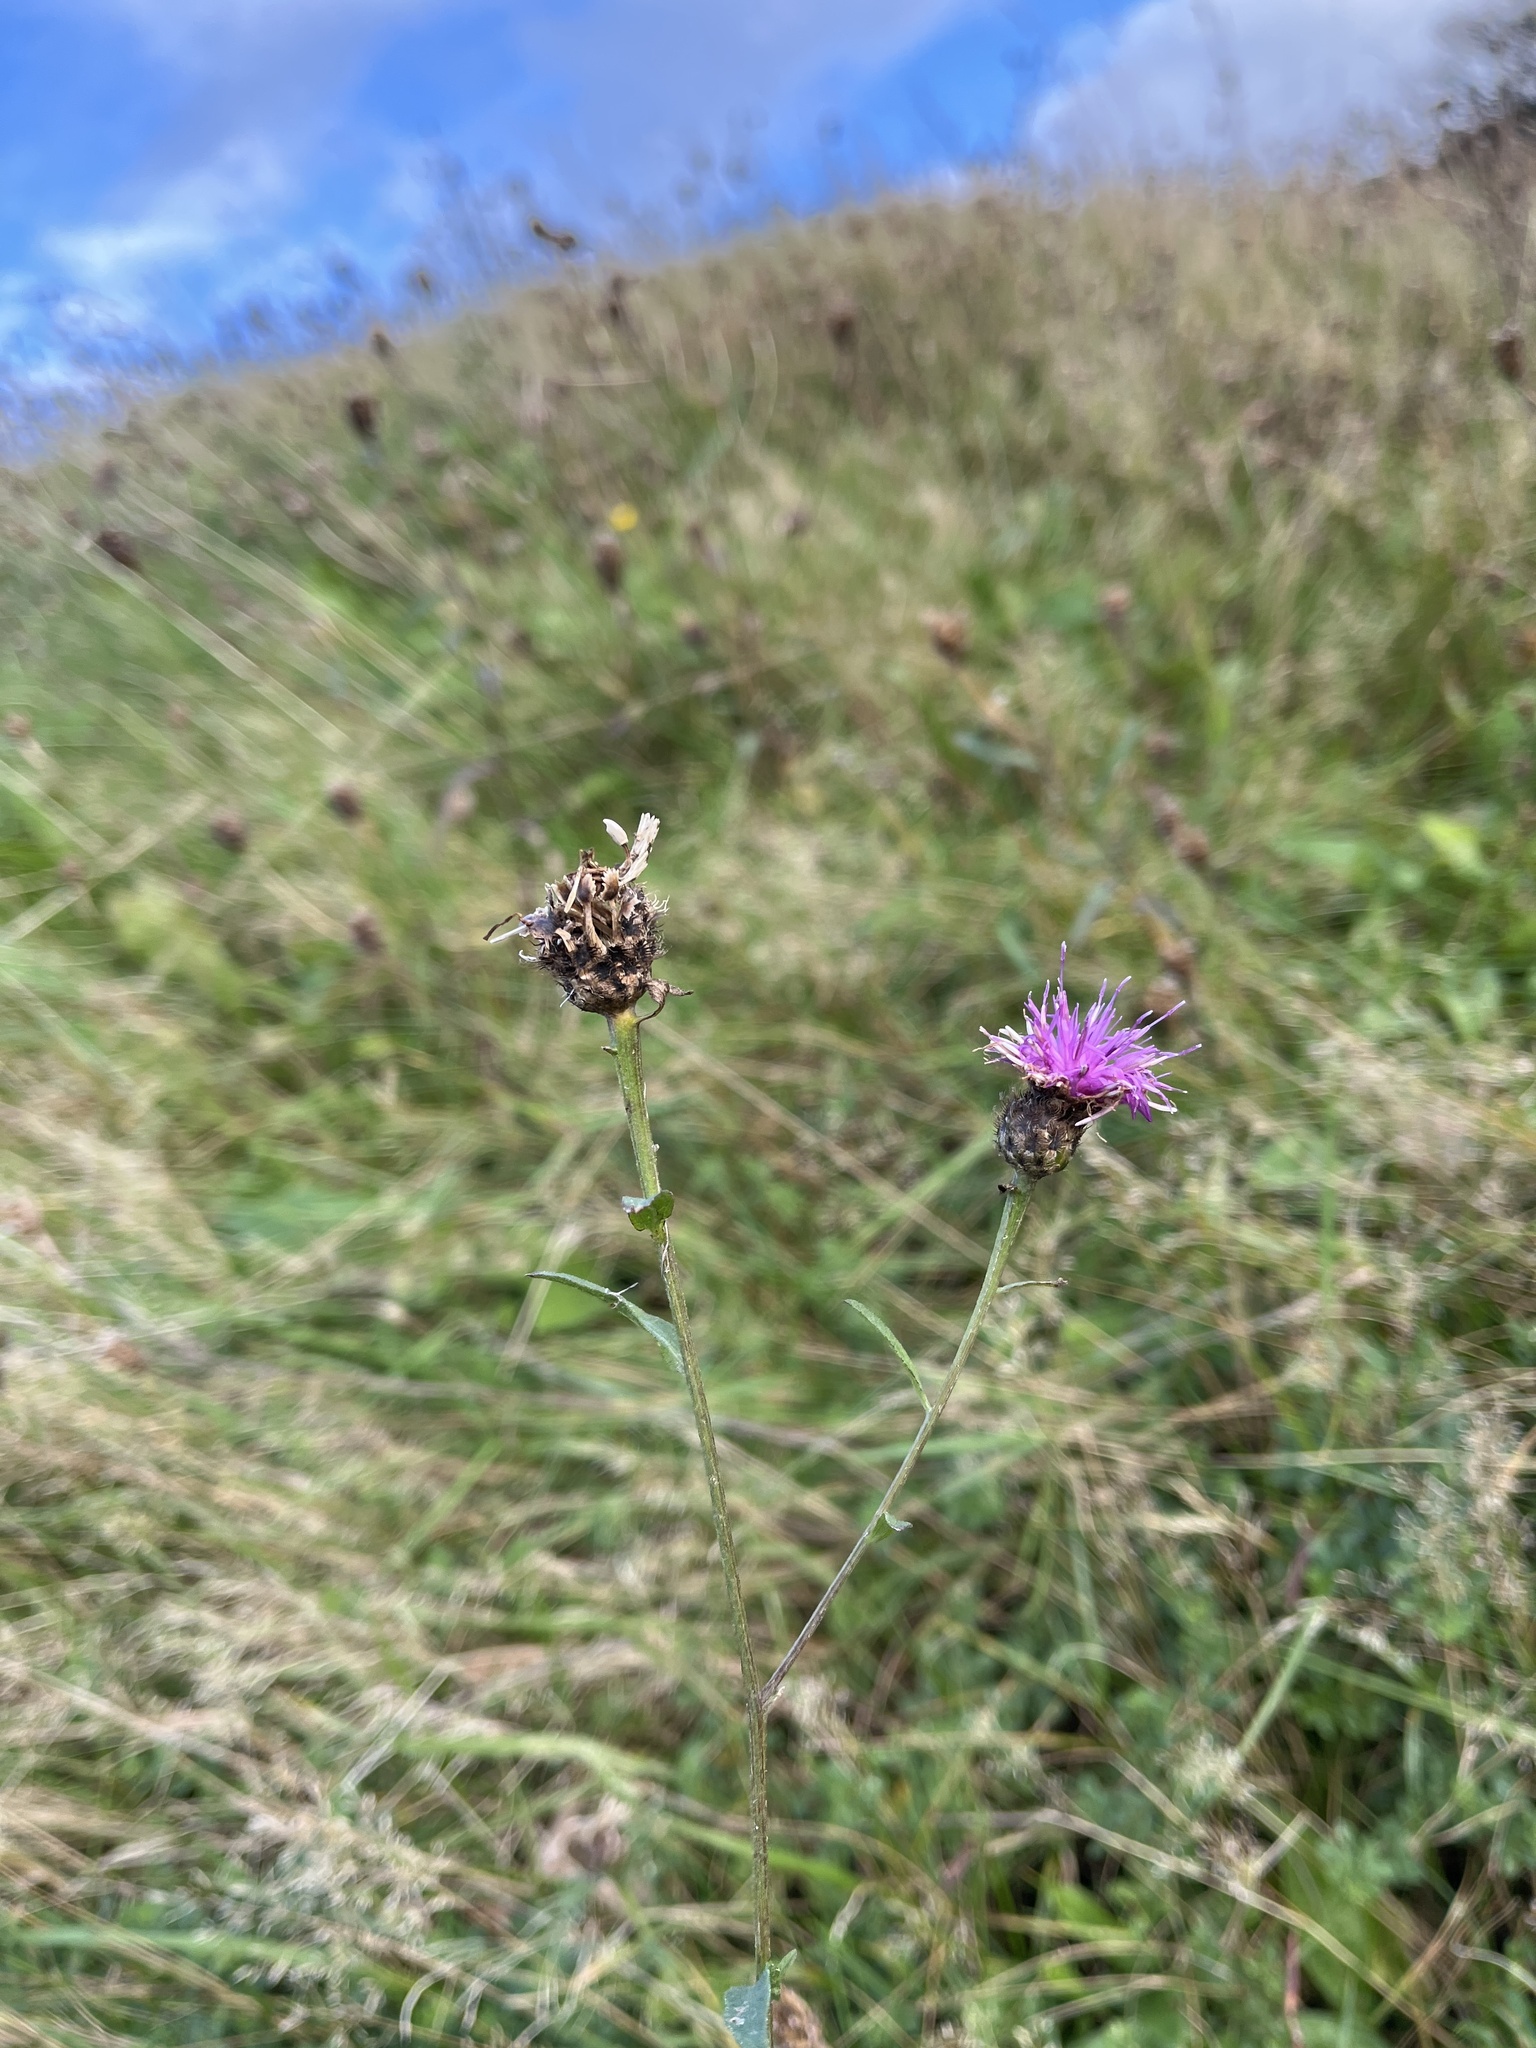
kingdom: Plantae
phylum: Tracheophyta
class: Magnoliopsida
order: Asterales
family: Asteraceae
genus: Centaurea
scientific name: Centaurea nigra
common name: Lesser knapweed
